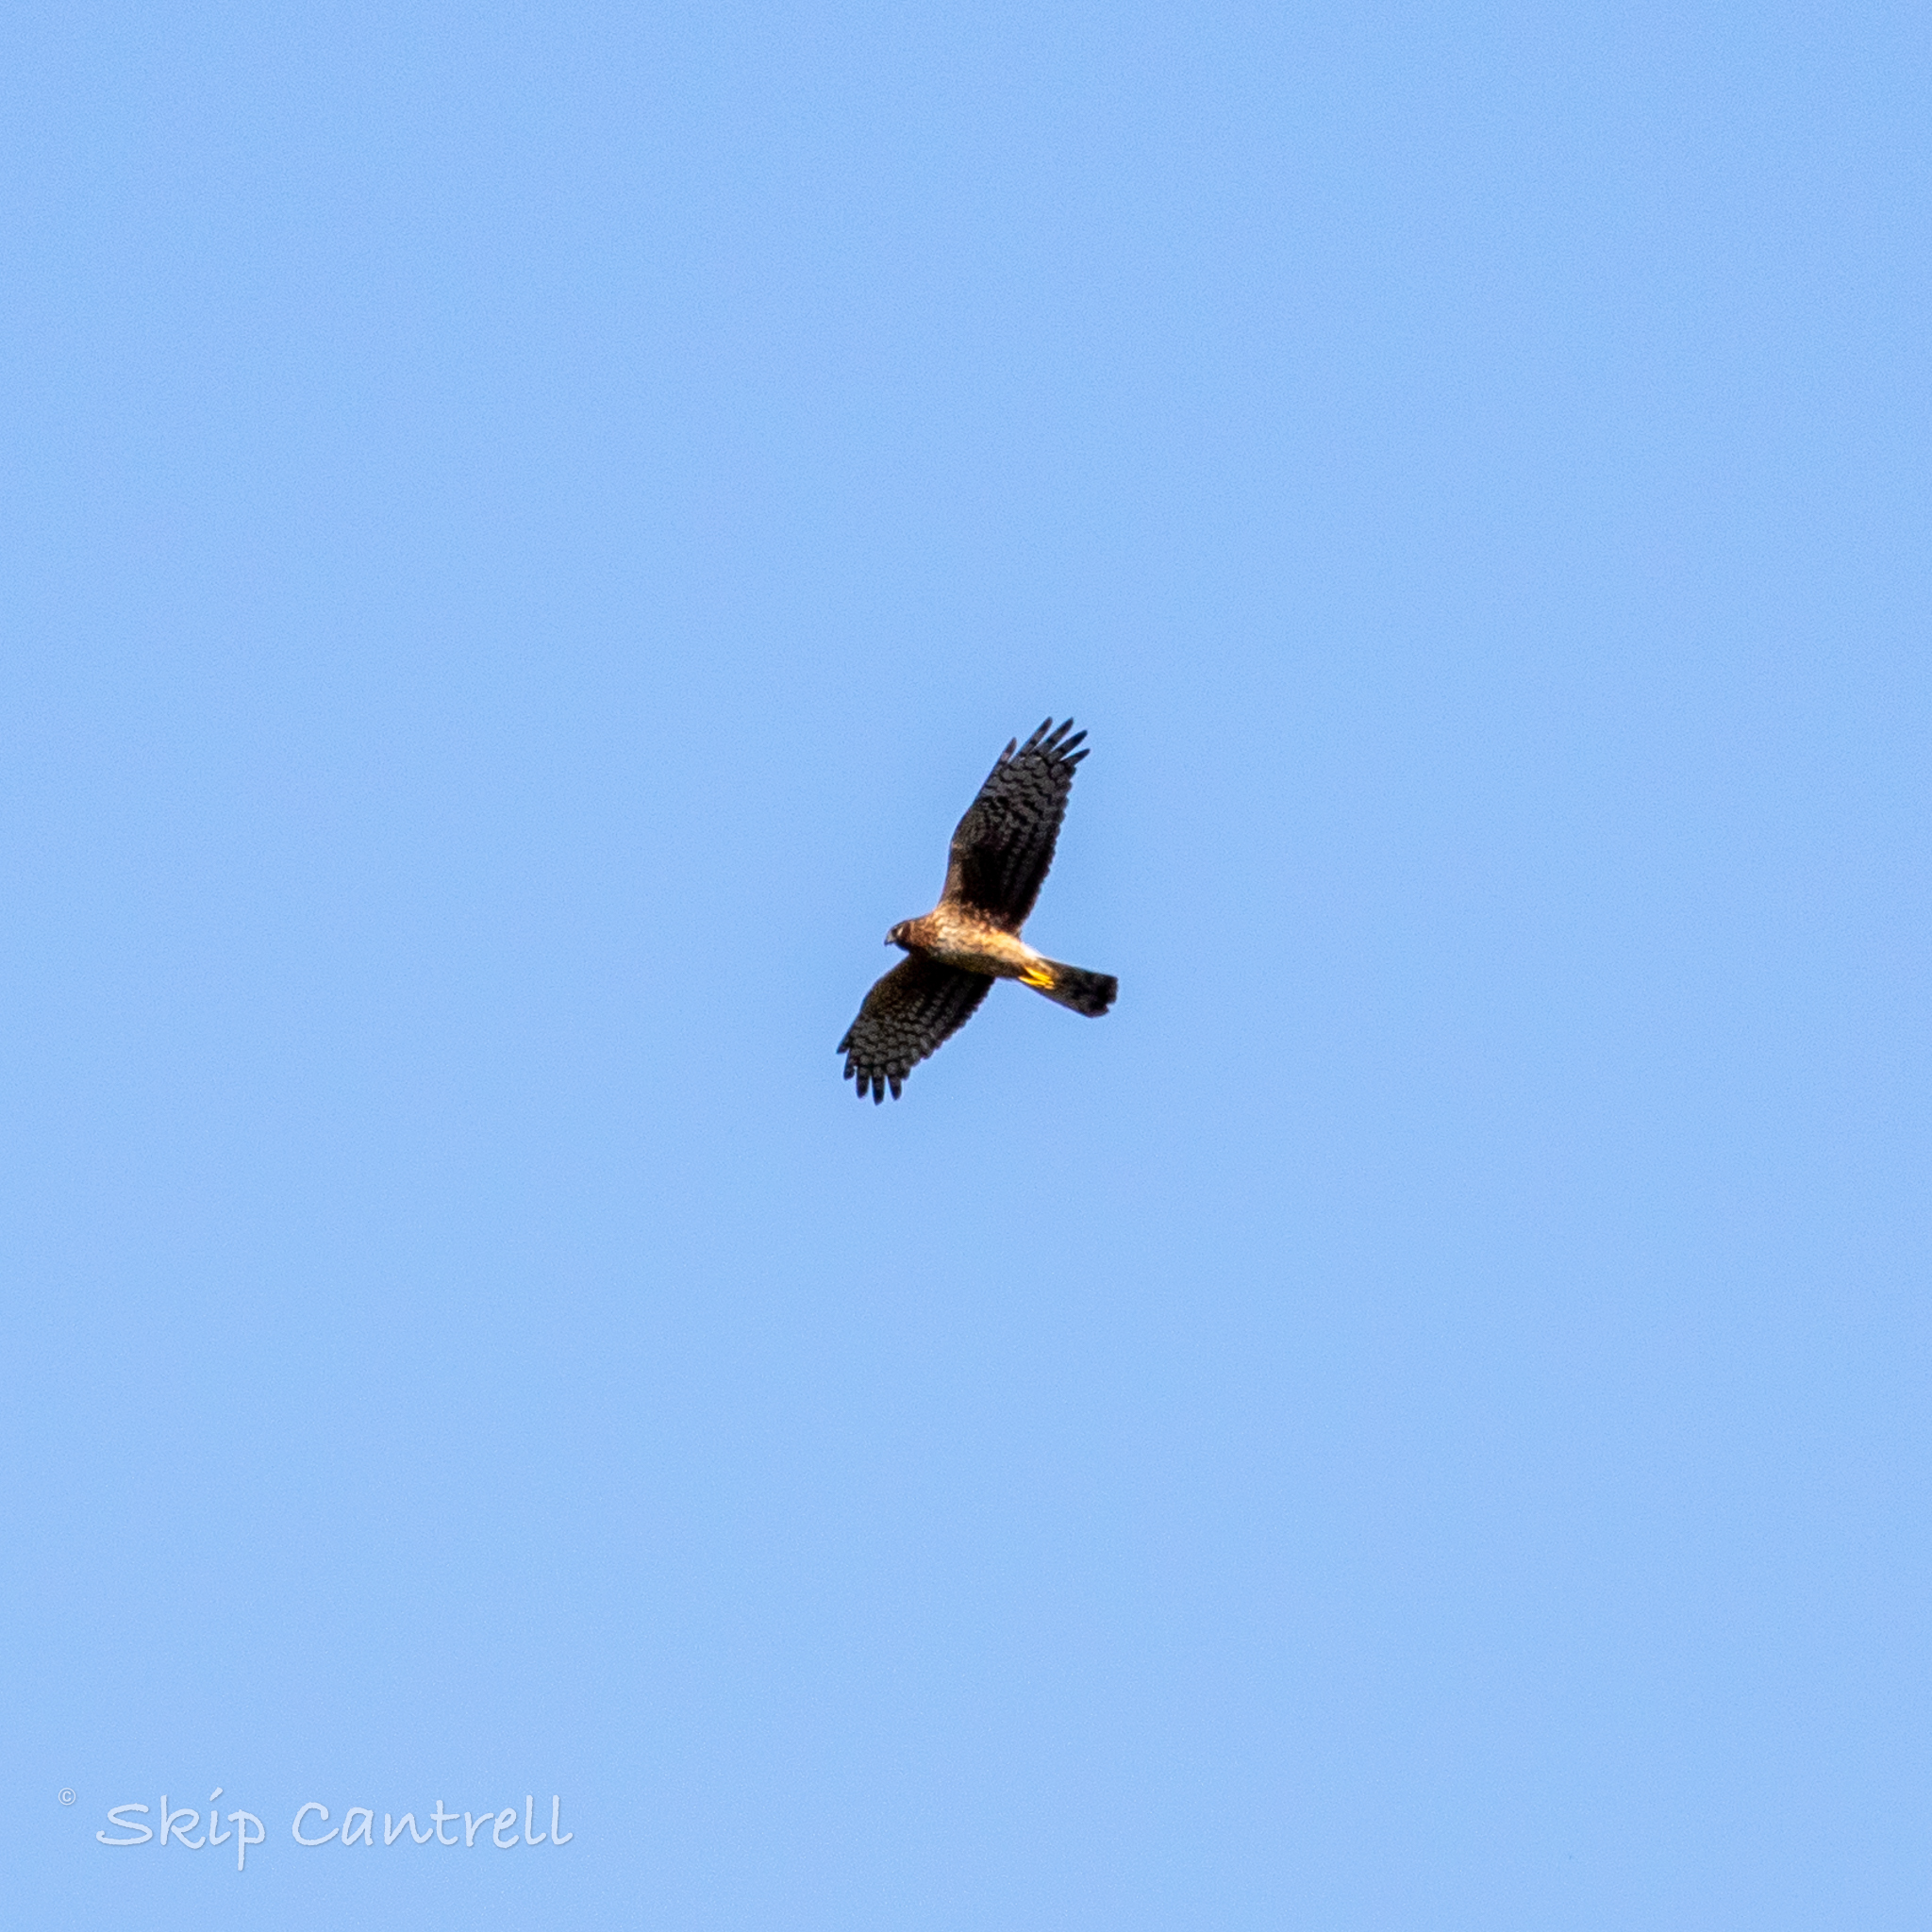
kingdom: Animalia
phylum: Chordata
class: Aves
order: Accipitriformes
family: Accipitridae
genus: Circus
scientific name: Circus cyaneus
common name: Hen harrier
